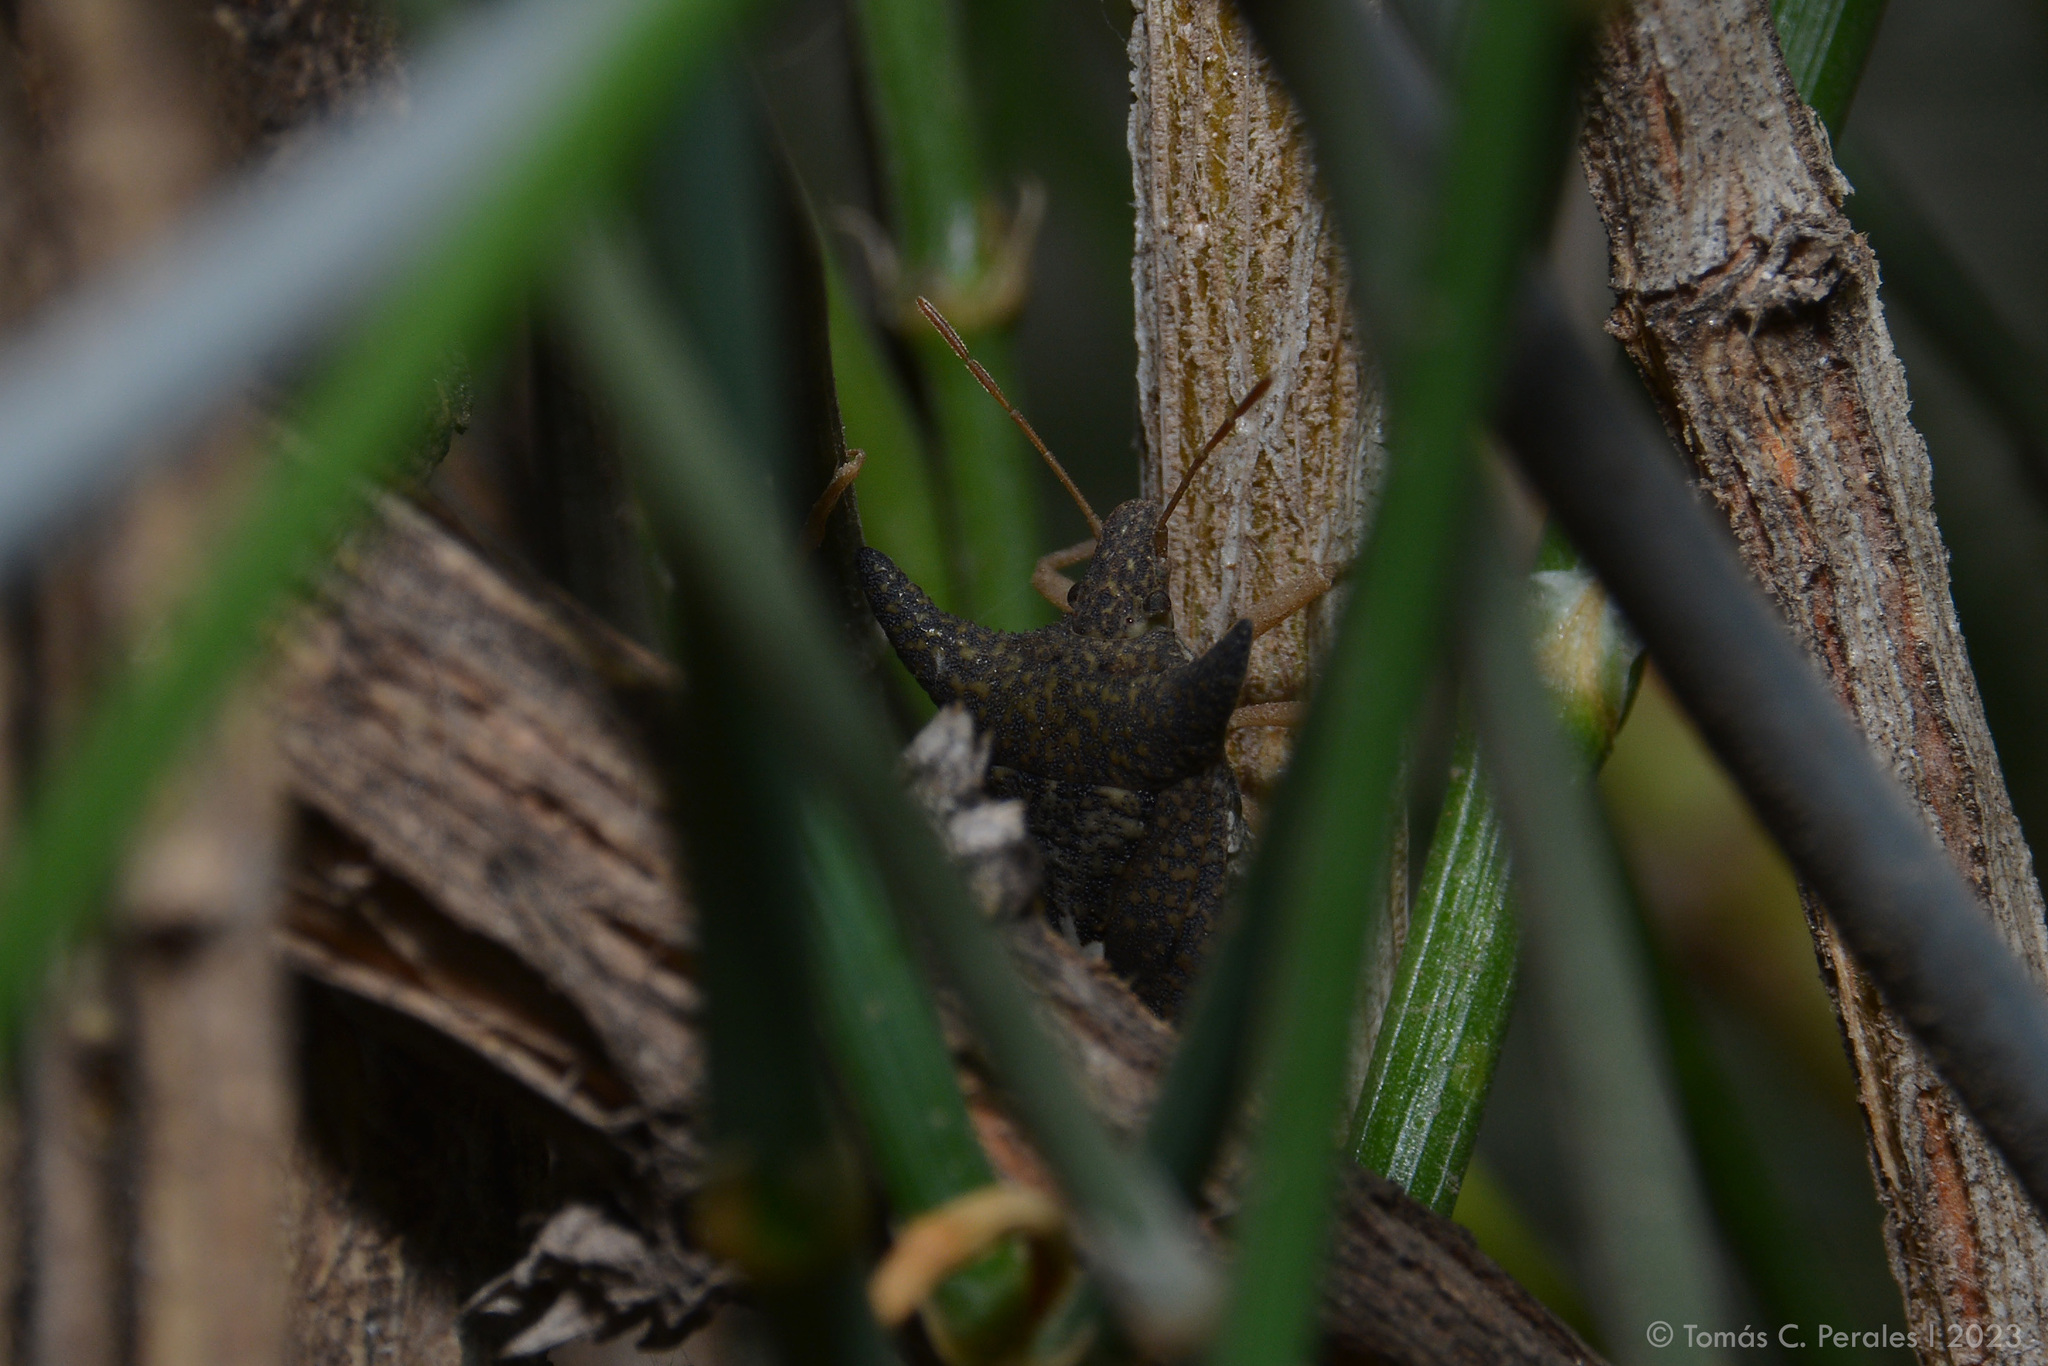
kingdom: Animalia
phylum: Arthropoda
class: Insecta
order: Hemiptera
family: Pentatomidae
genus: Euschistus
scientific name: Euschistus
